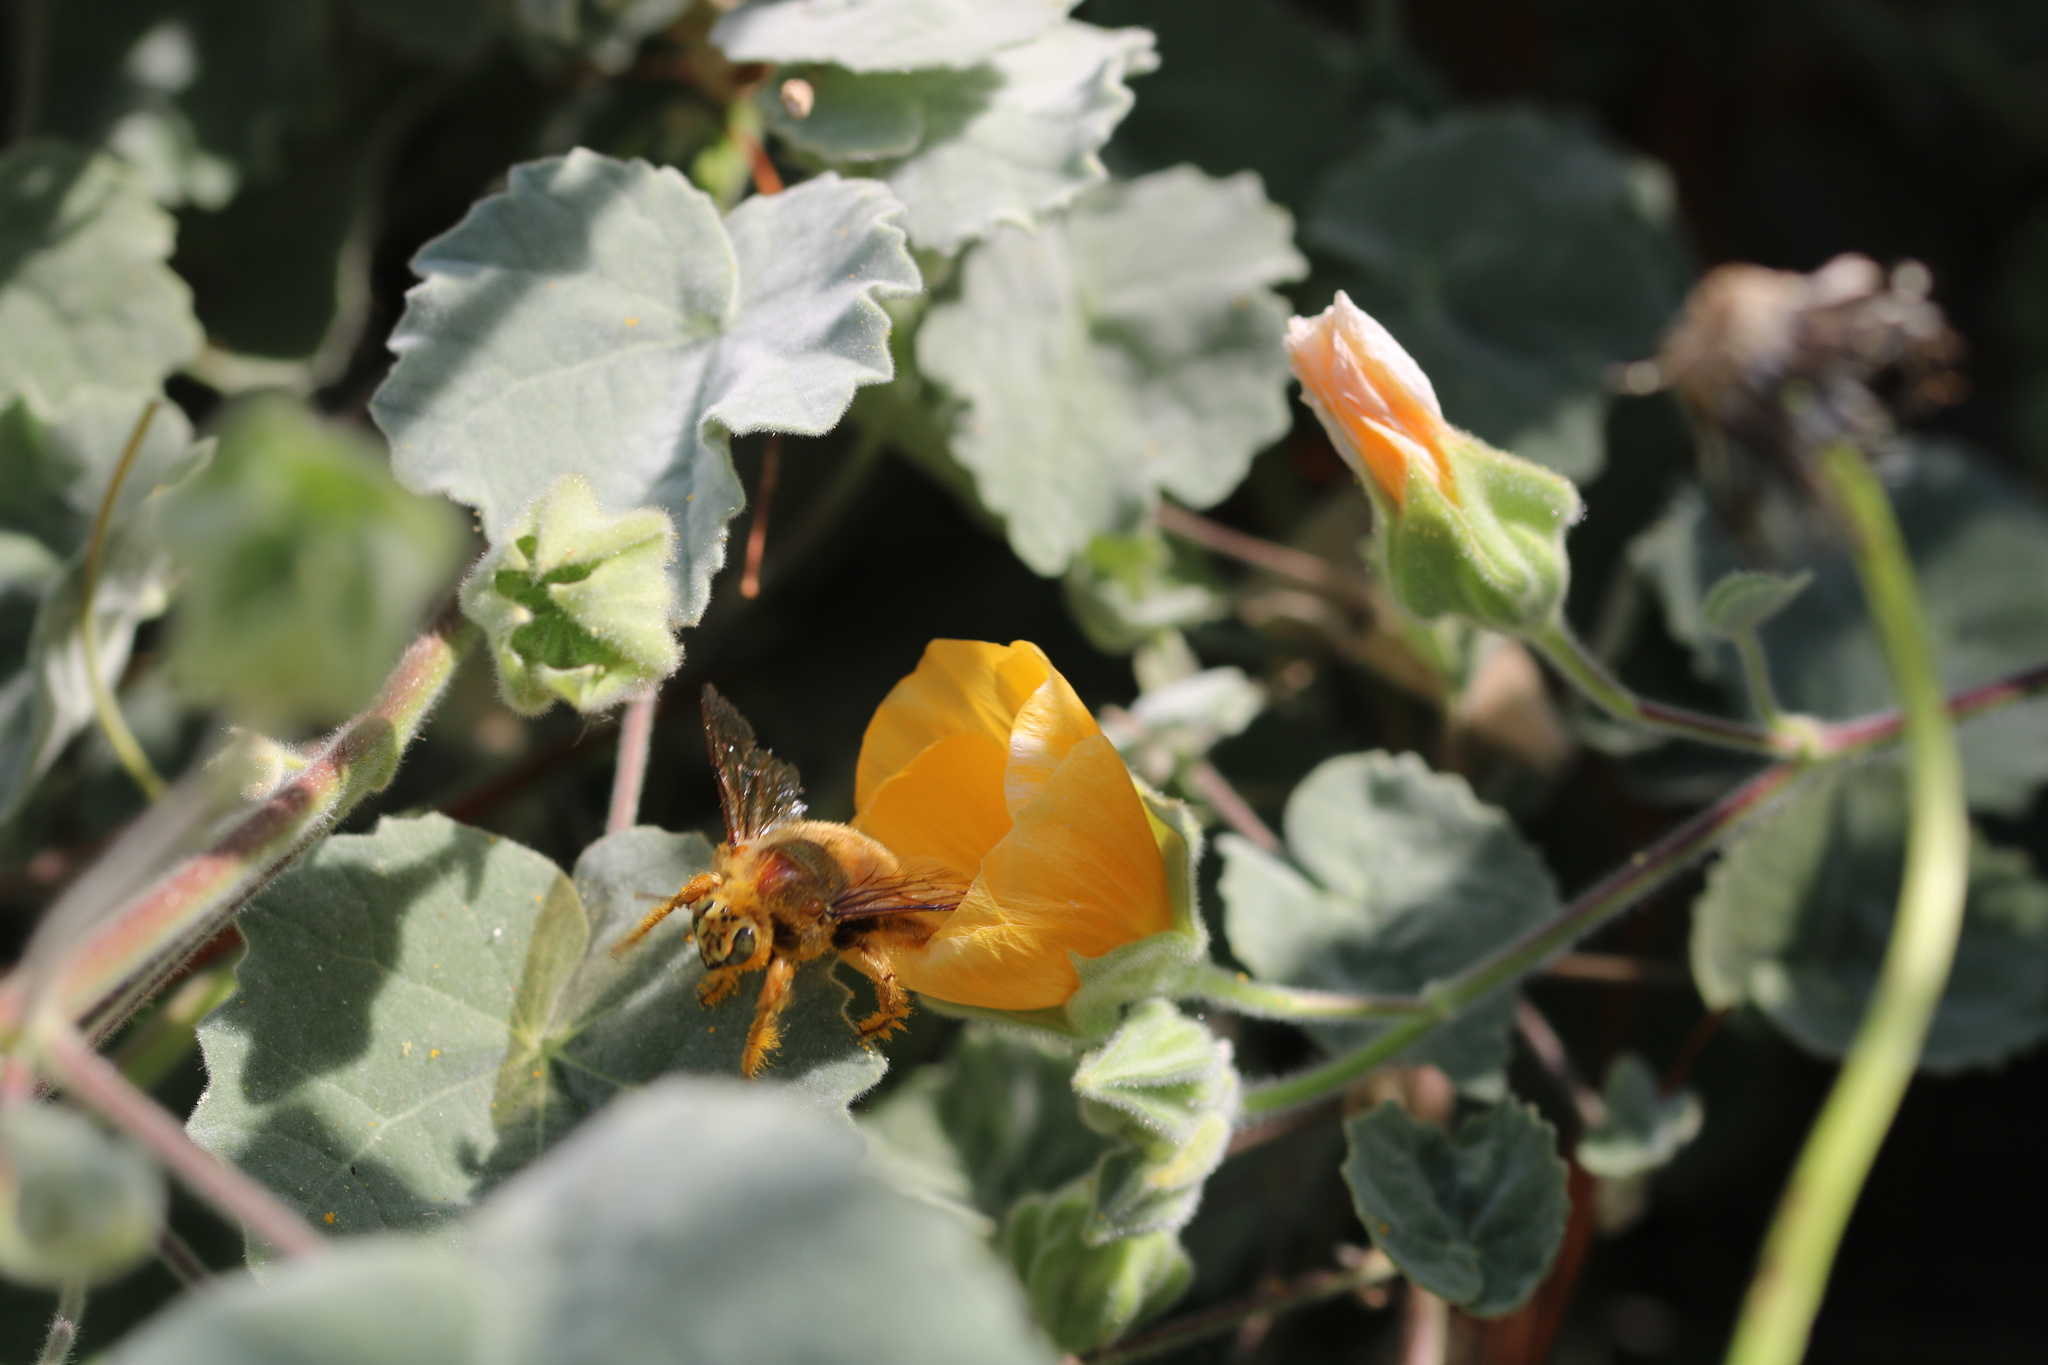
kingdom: Animalia
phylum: Arthropoda
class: Insecta
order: Hymenoptera
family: Apidae
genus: Xylocopa
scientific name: Xylocopa sonorina
